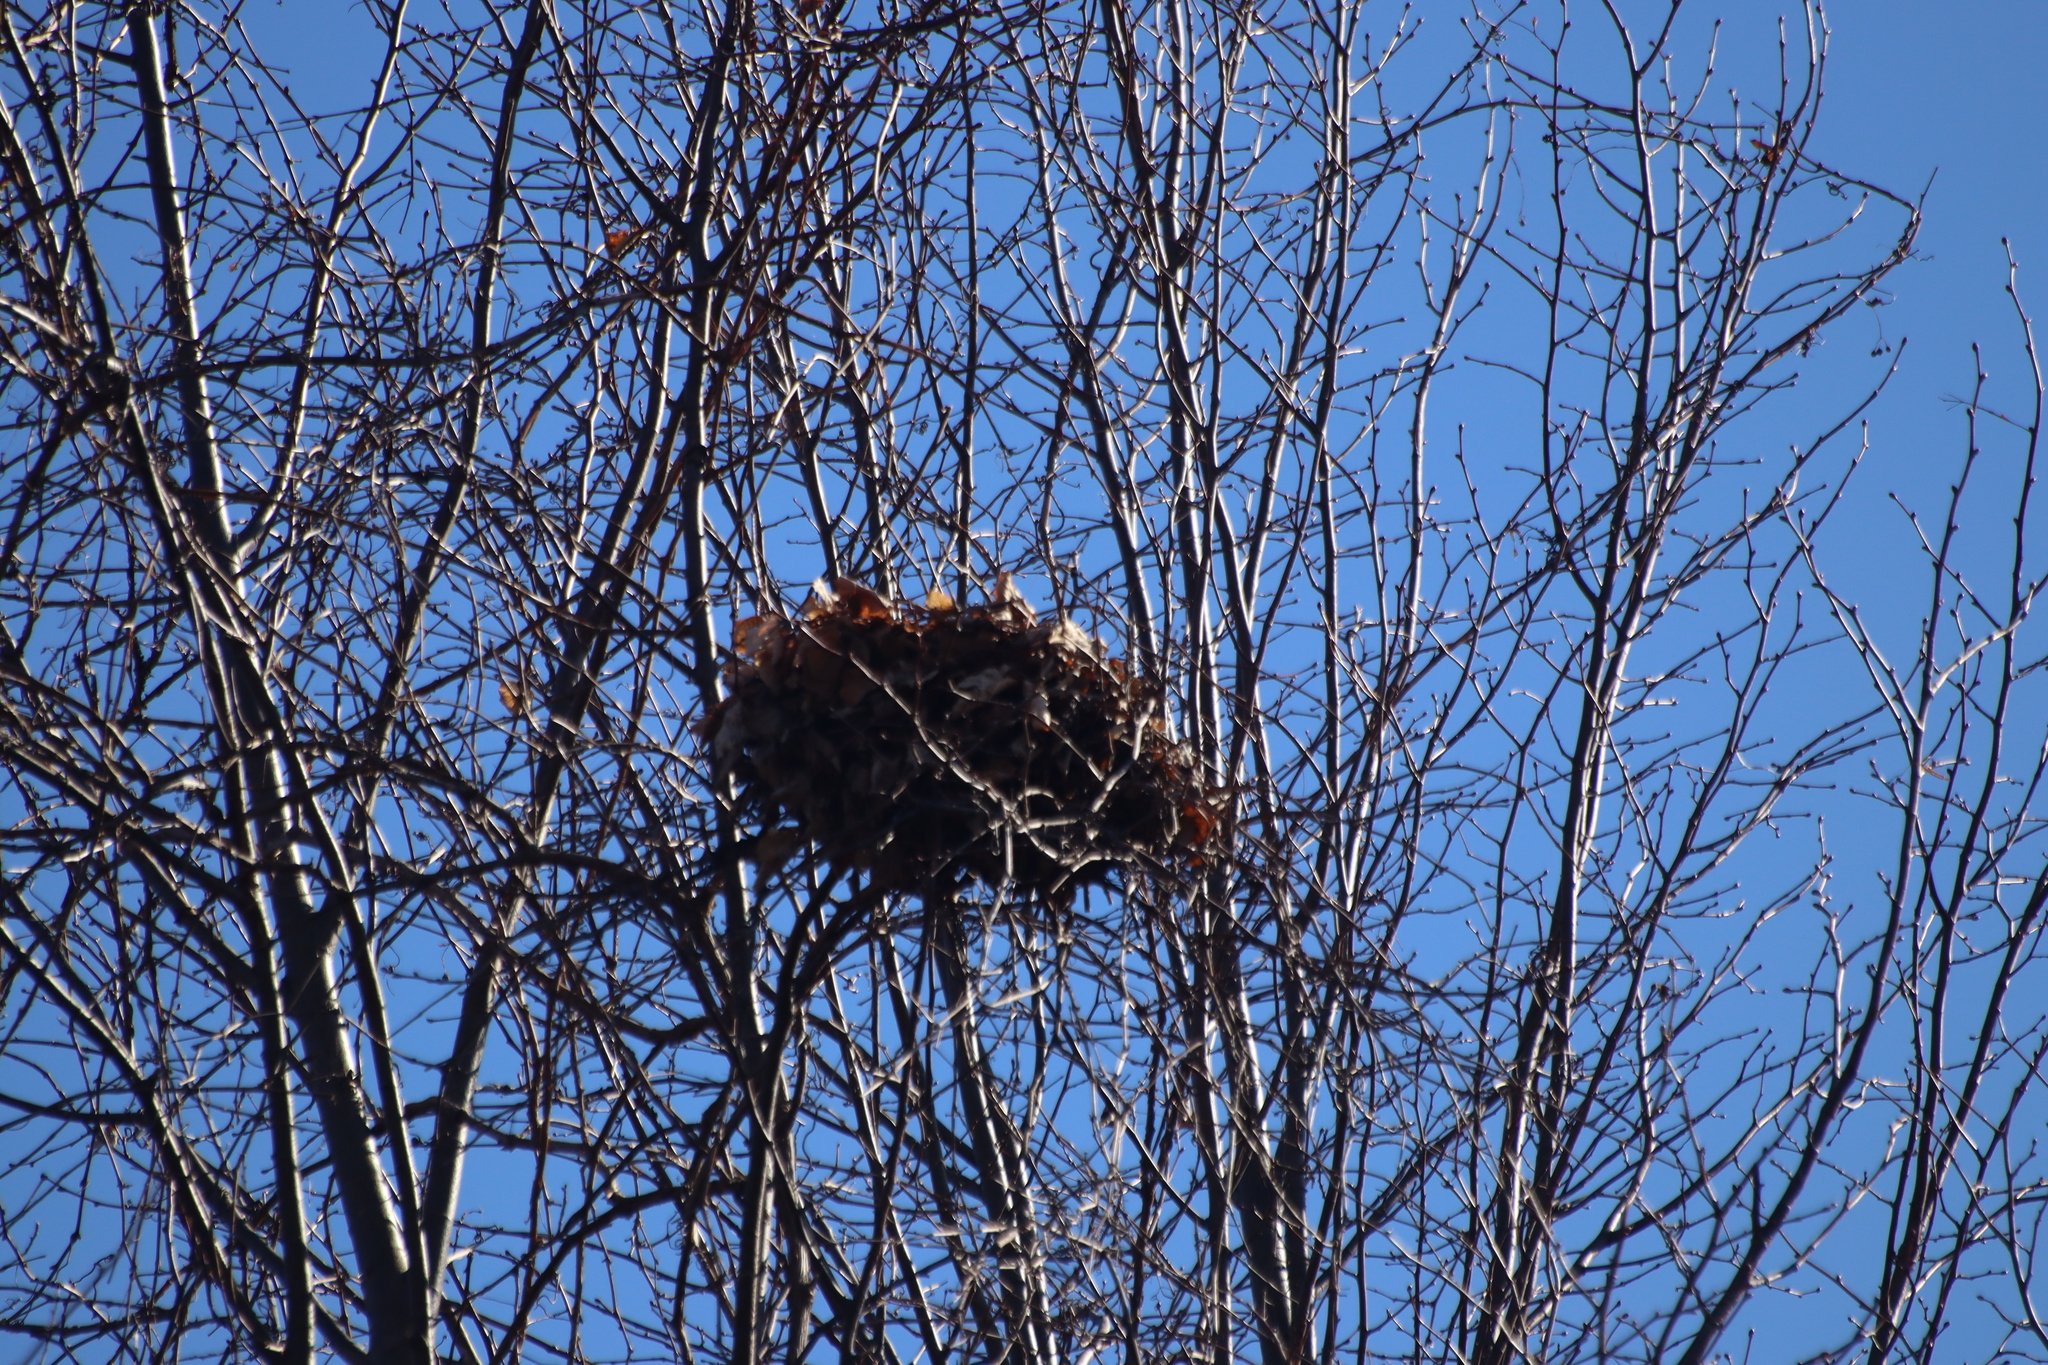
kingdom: Animalia
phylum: Chordata
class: Mammalia
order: Rodentia
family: Sciuridae
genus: Sciurus
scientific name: Sciurus carolinensis
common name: Eastern gray squirrel
